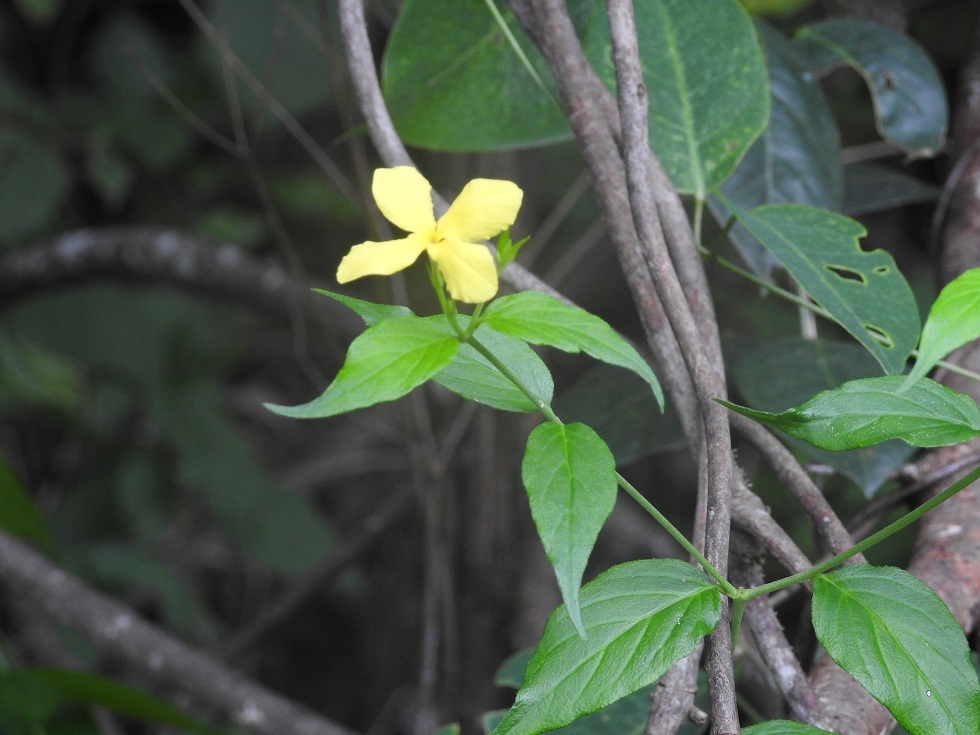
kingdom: Plantae
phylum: Tracheophyta
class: Magnoliopsida
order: Gentianales
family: Apocynaceae
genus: Haplophyton
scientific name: Haplophyton cimicidum
